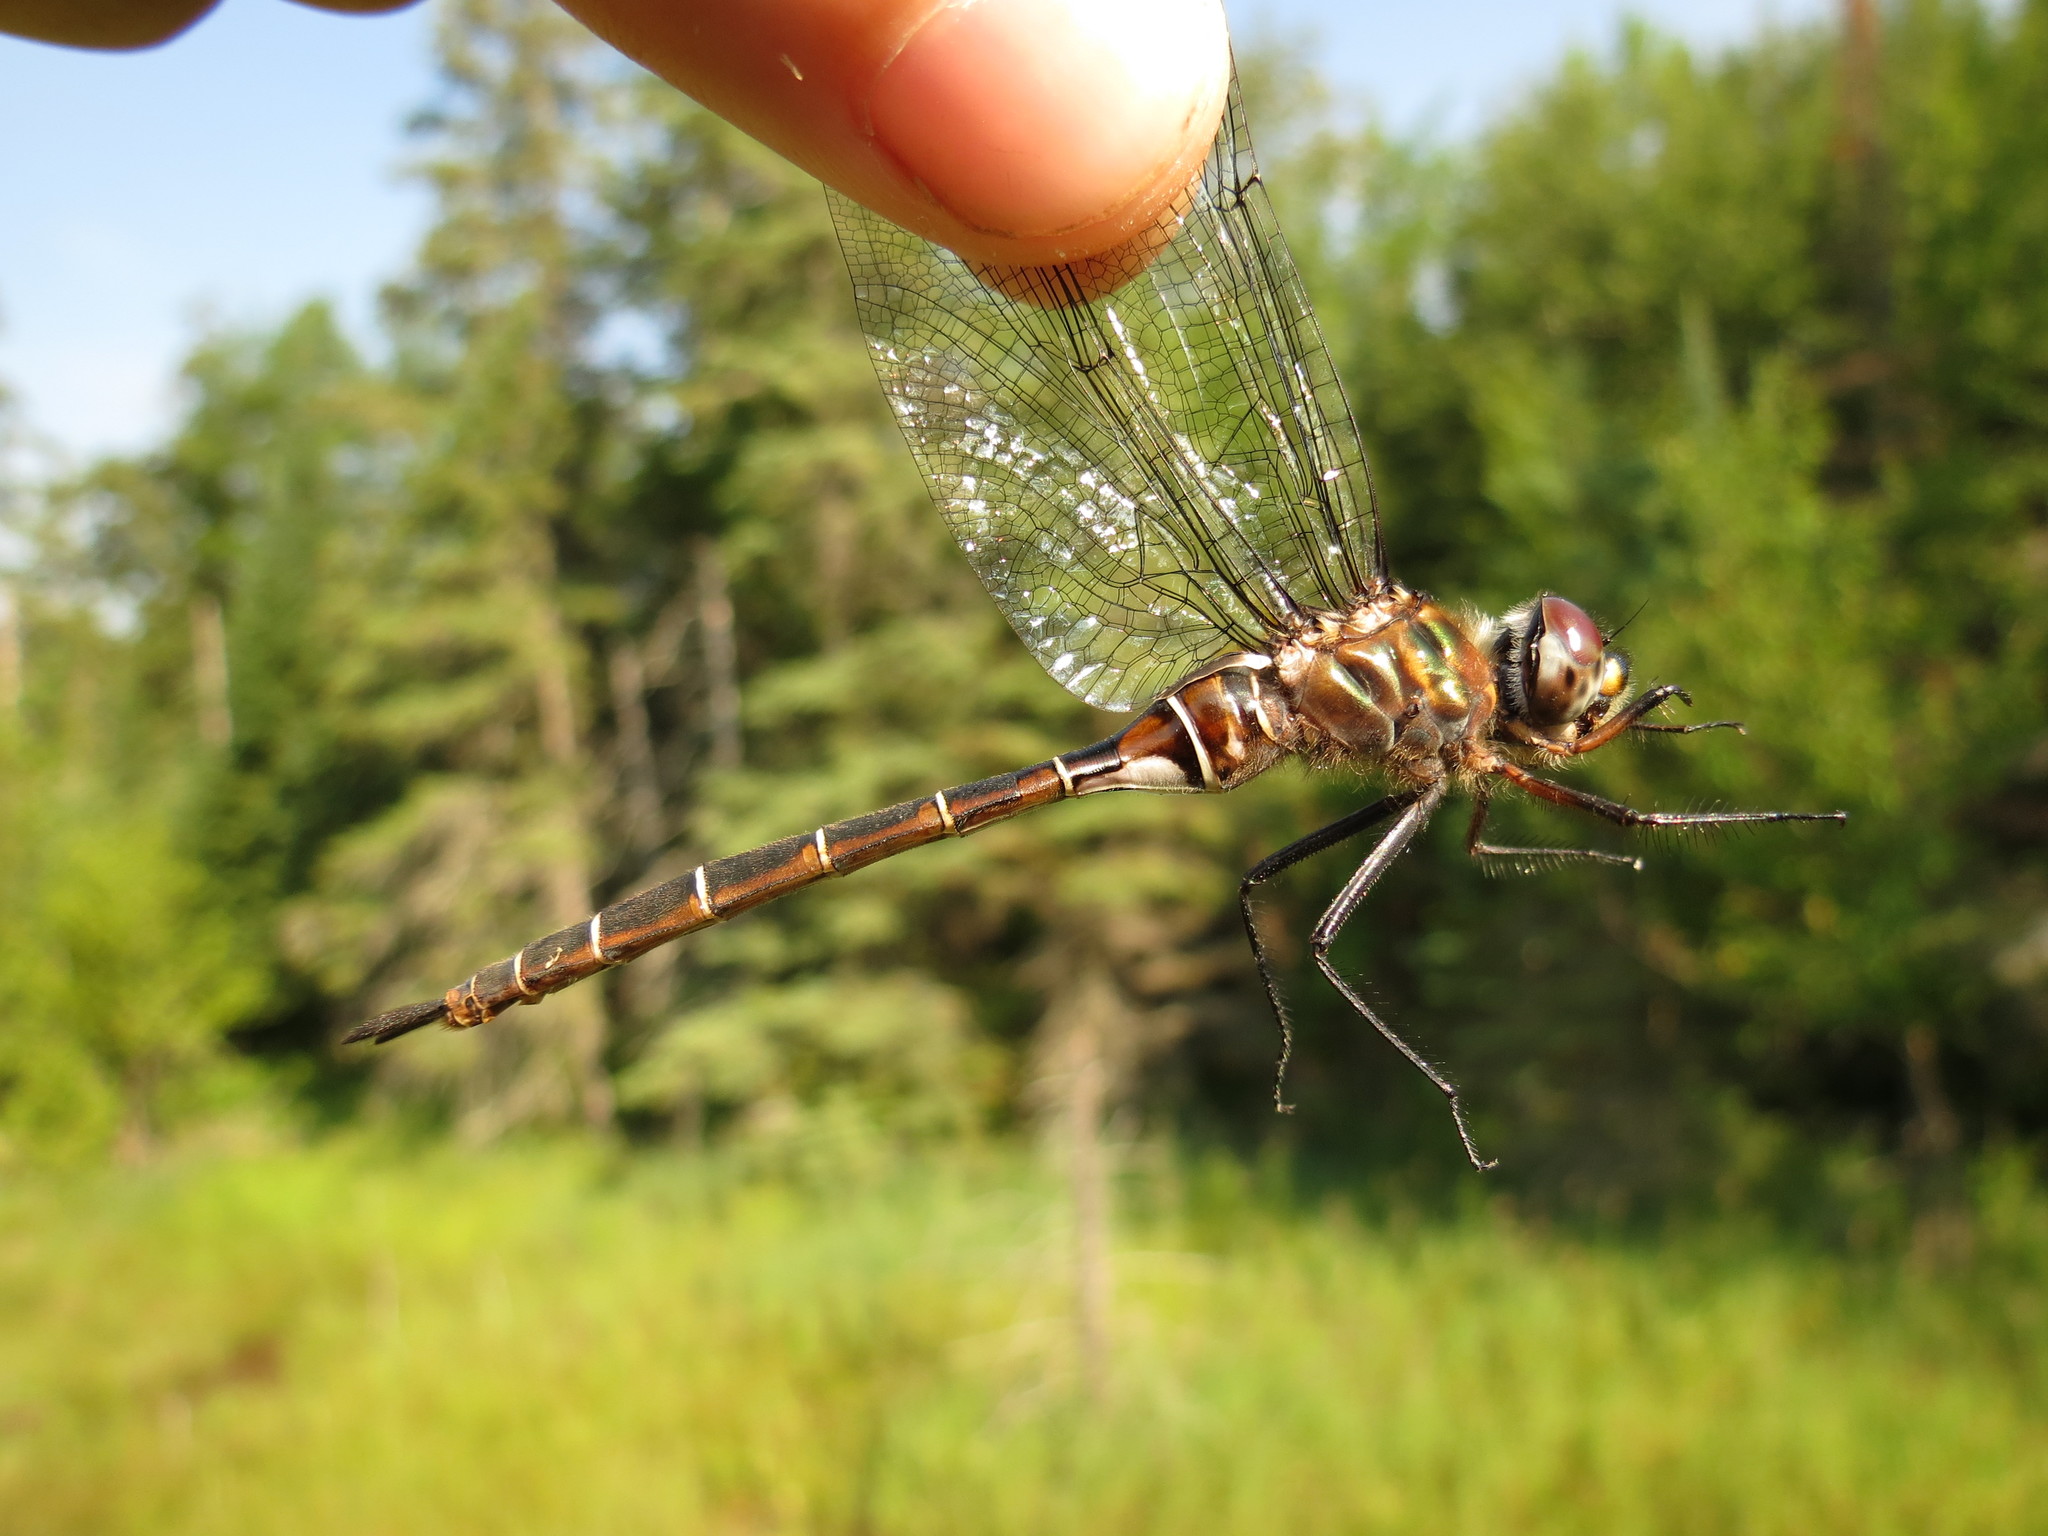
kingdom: Animalia
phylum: Arthropoda
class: Insecta
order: Odonata
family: Corduliidae
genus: Somatochlora
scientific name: Somatochlora cingulata
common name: Lake emerald
